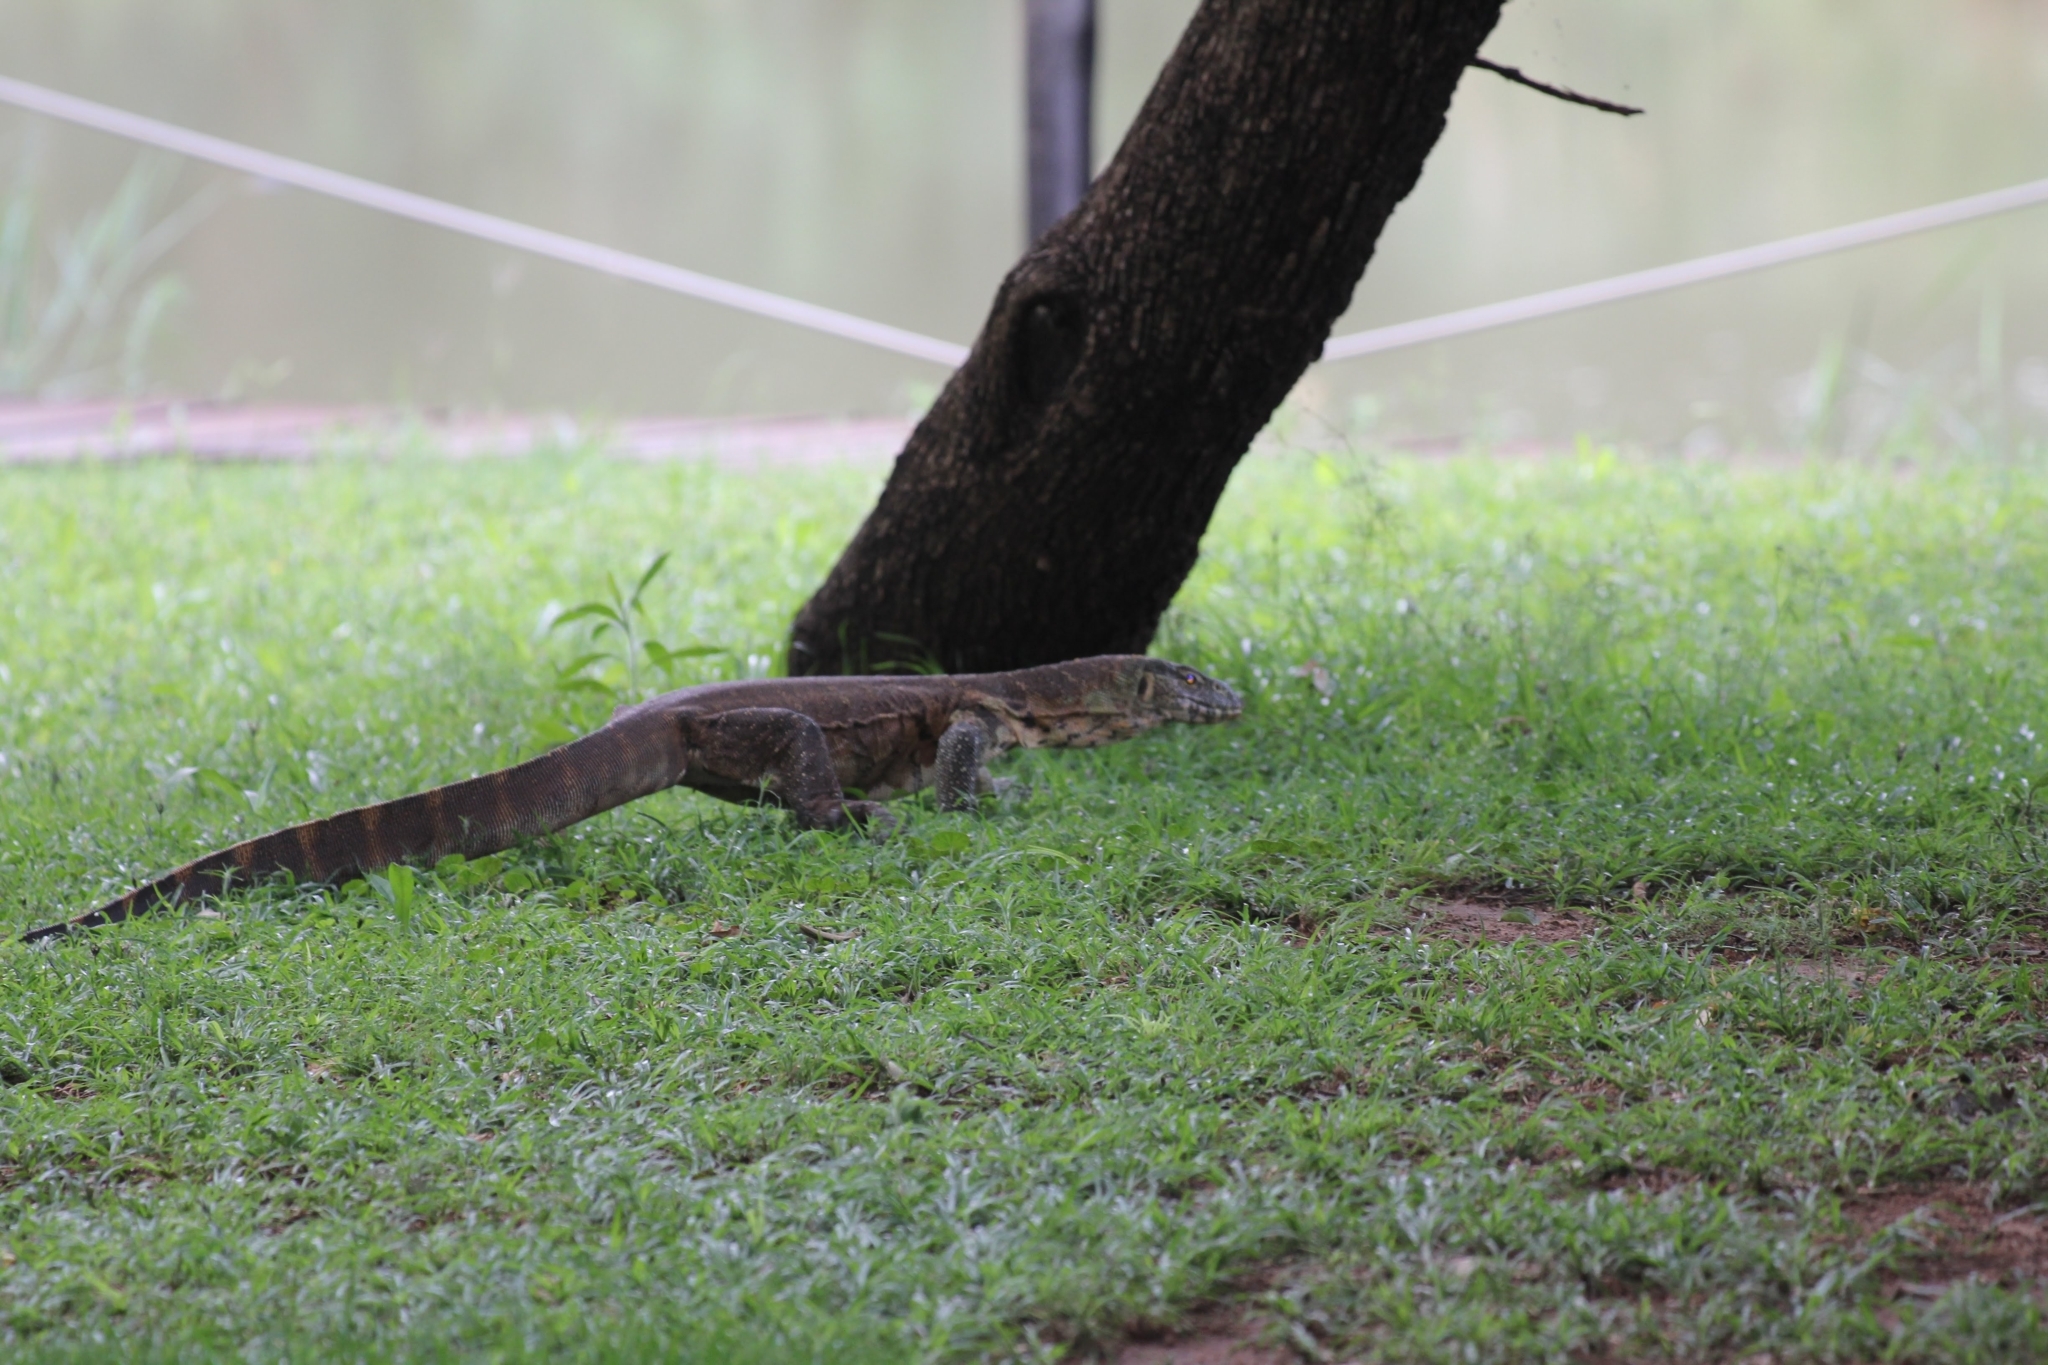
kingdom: Animalia
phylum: Chordata
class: Squamata
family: Varanidae
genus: Varanus
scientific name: Varanus niloticus
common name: Nile monitor
